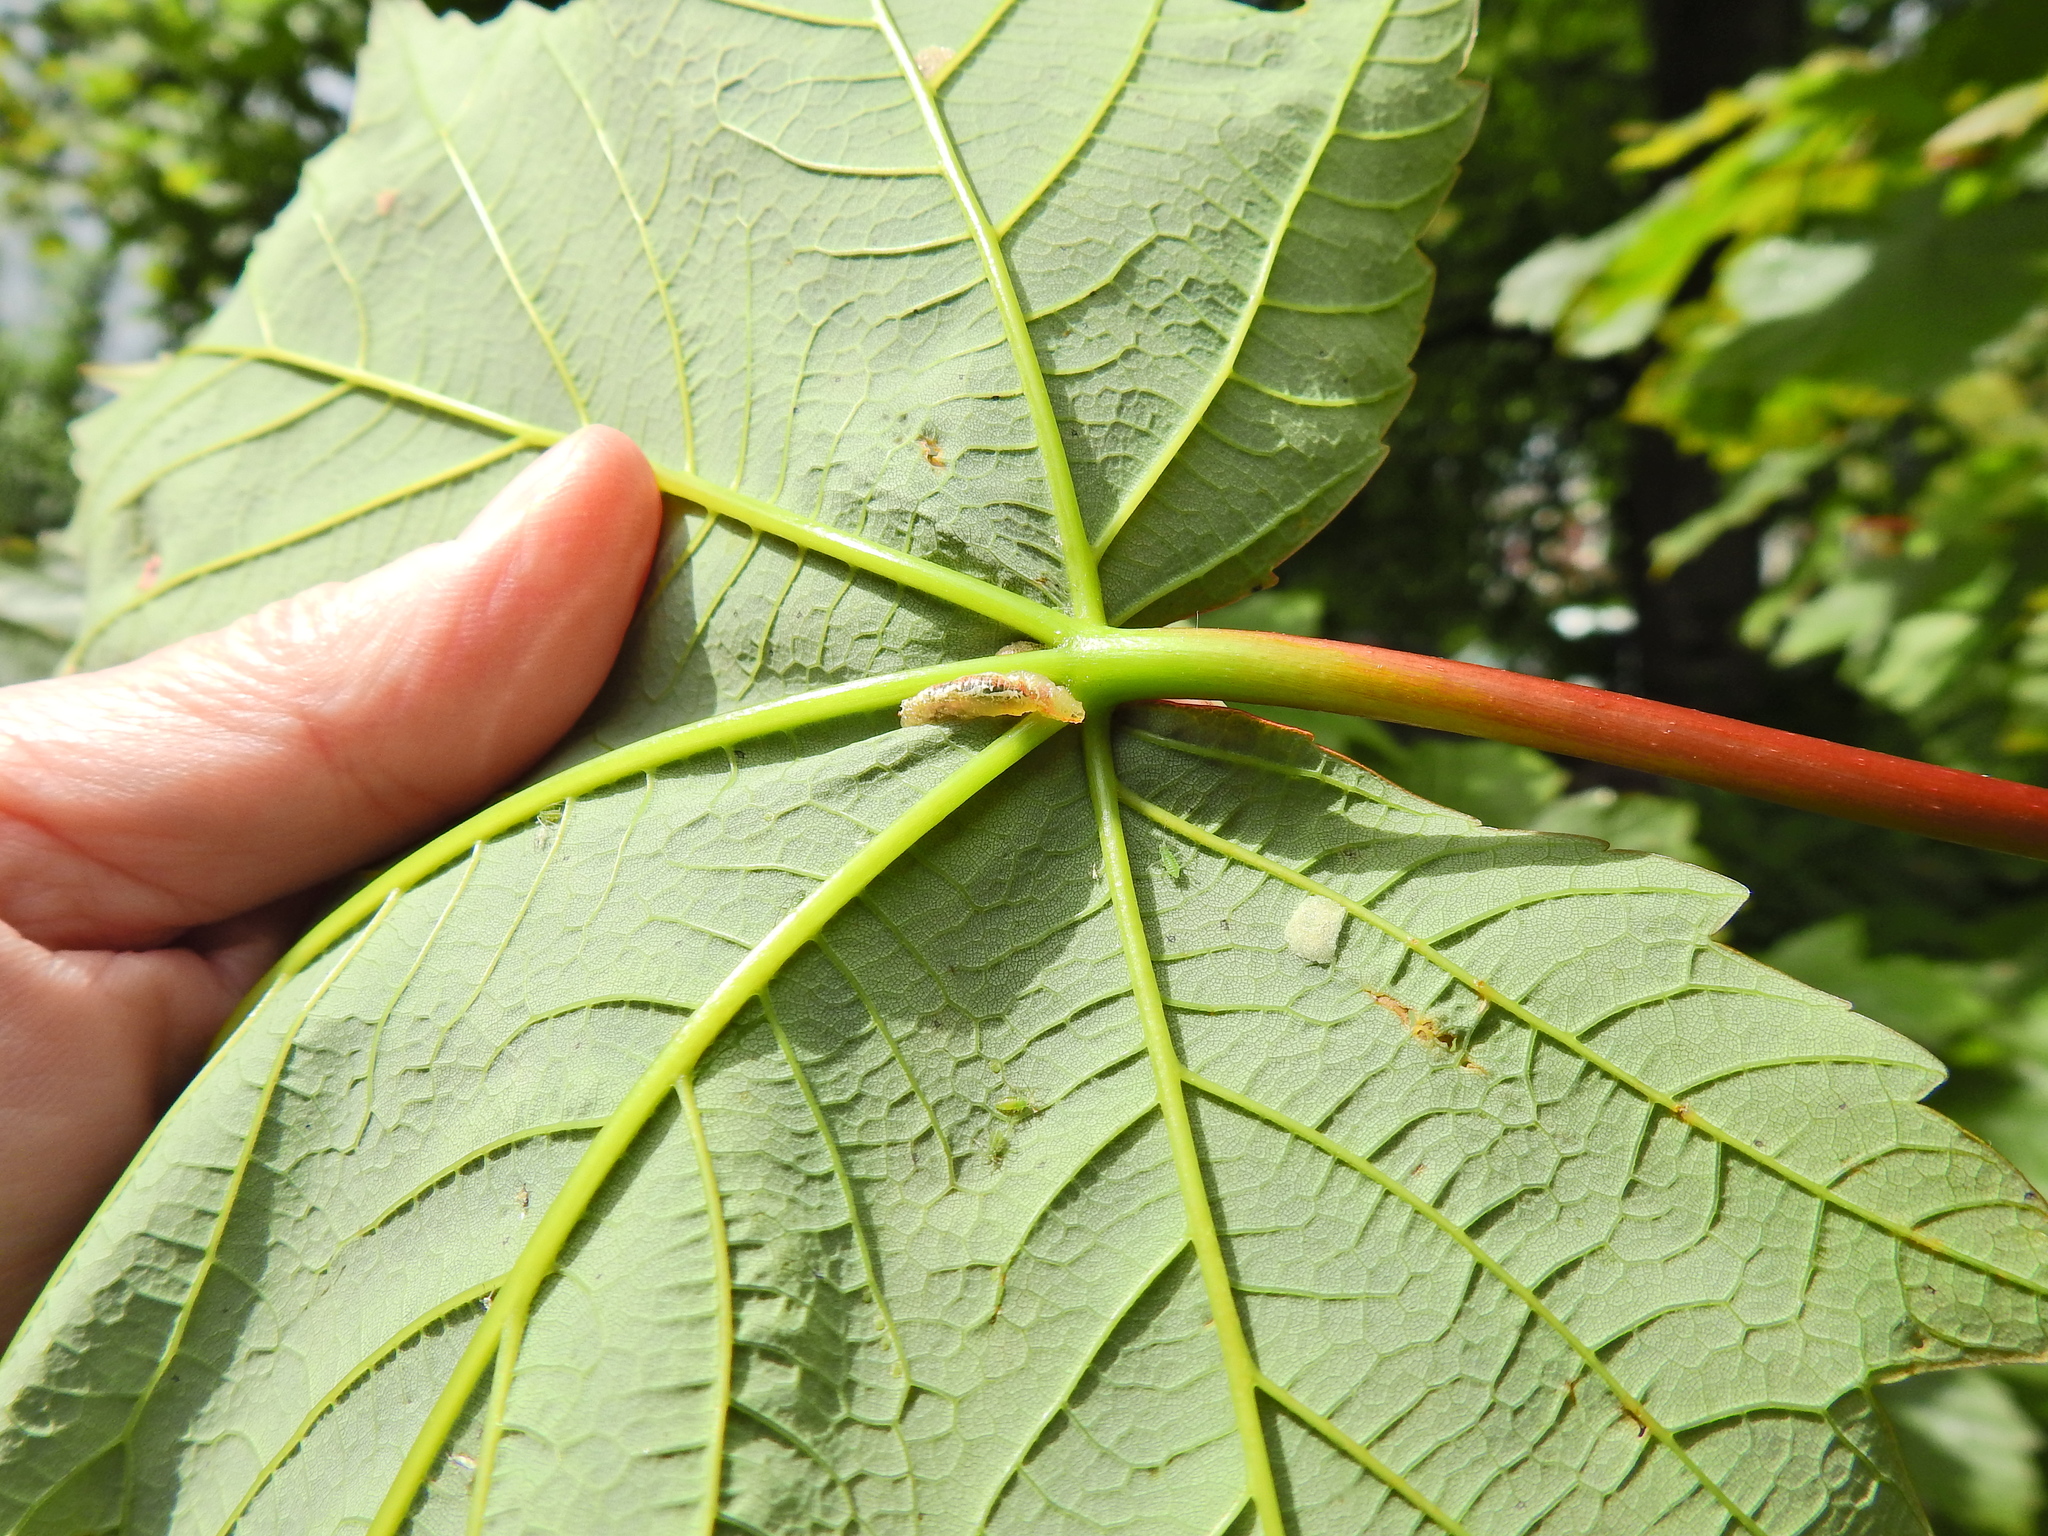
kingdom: Animalia
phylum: Arthropoda
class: Insecta
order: Diptera
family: Syrphidae
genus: Syrphus
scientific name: Syrphus
